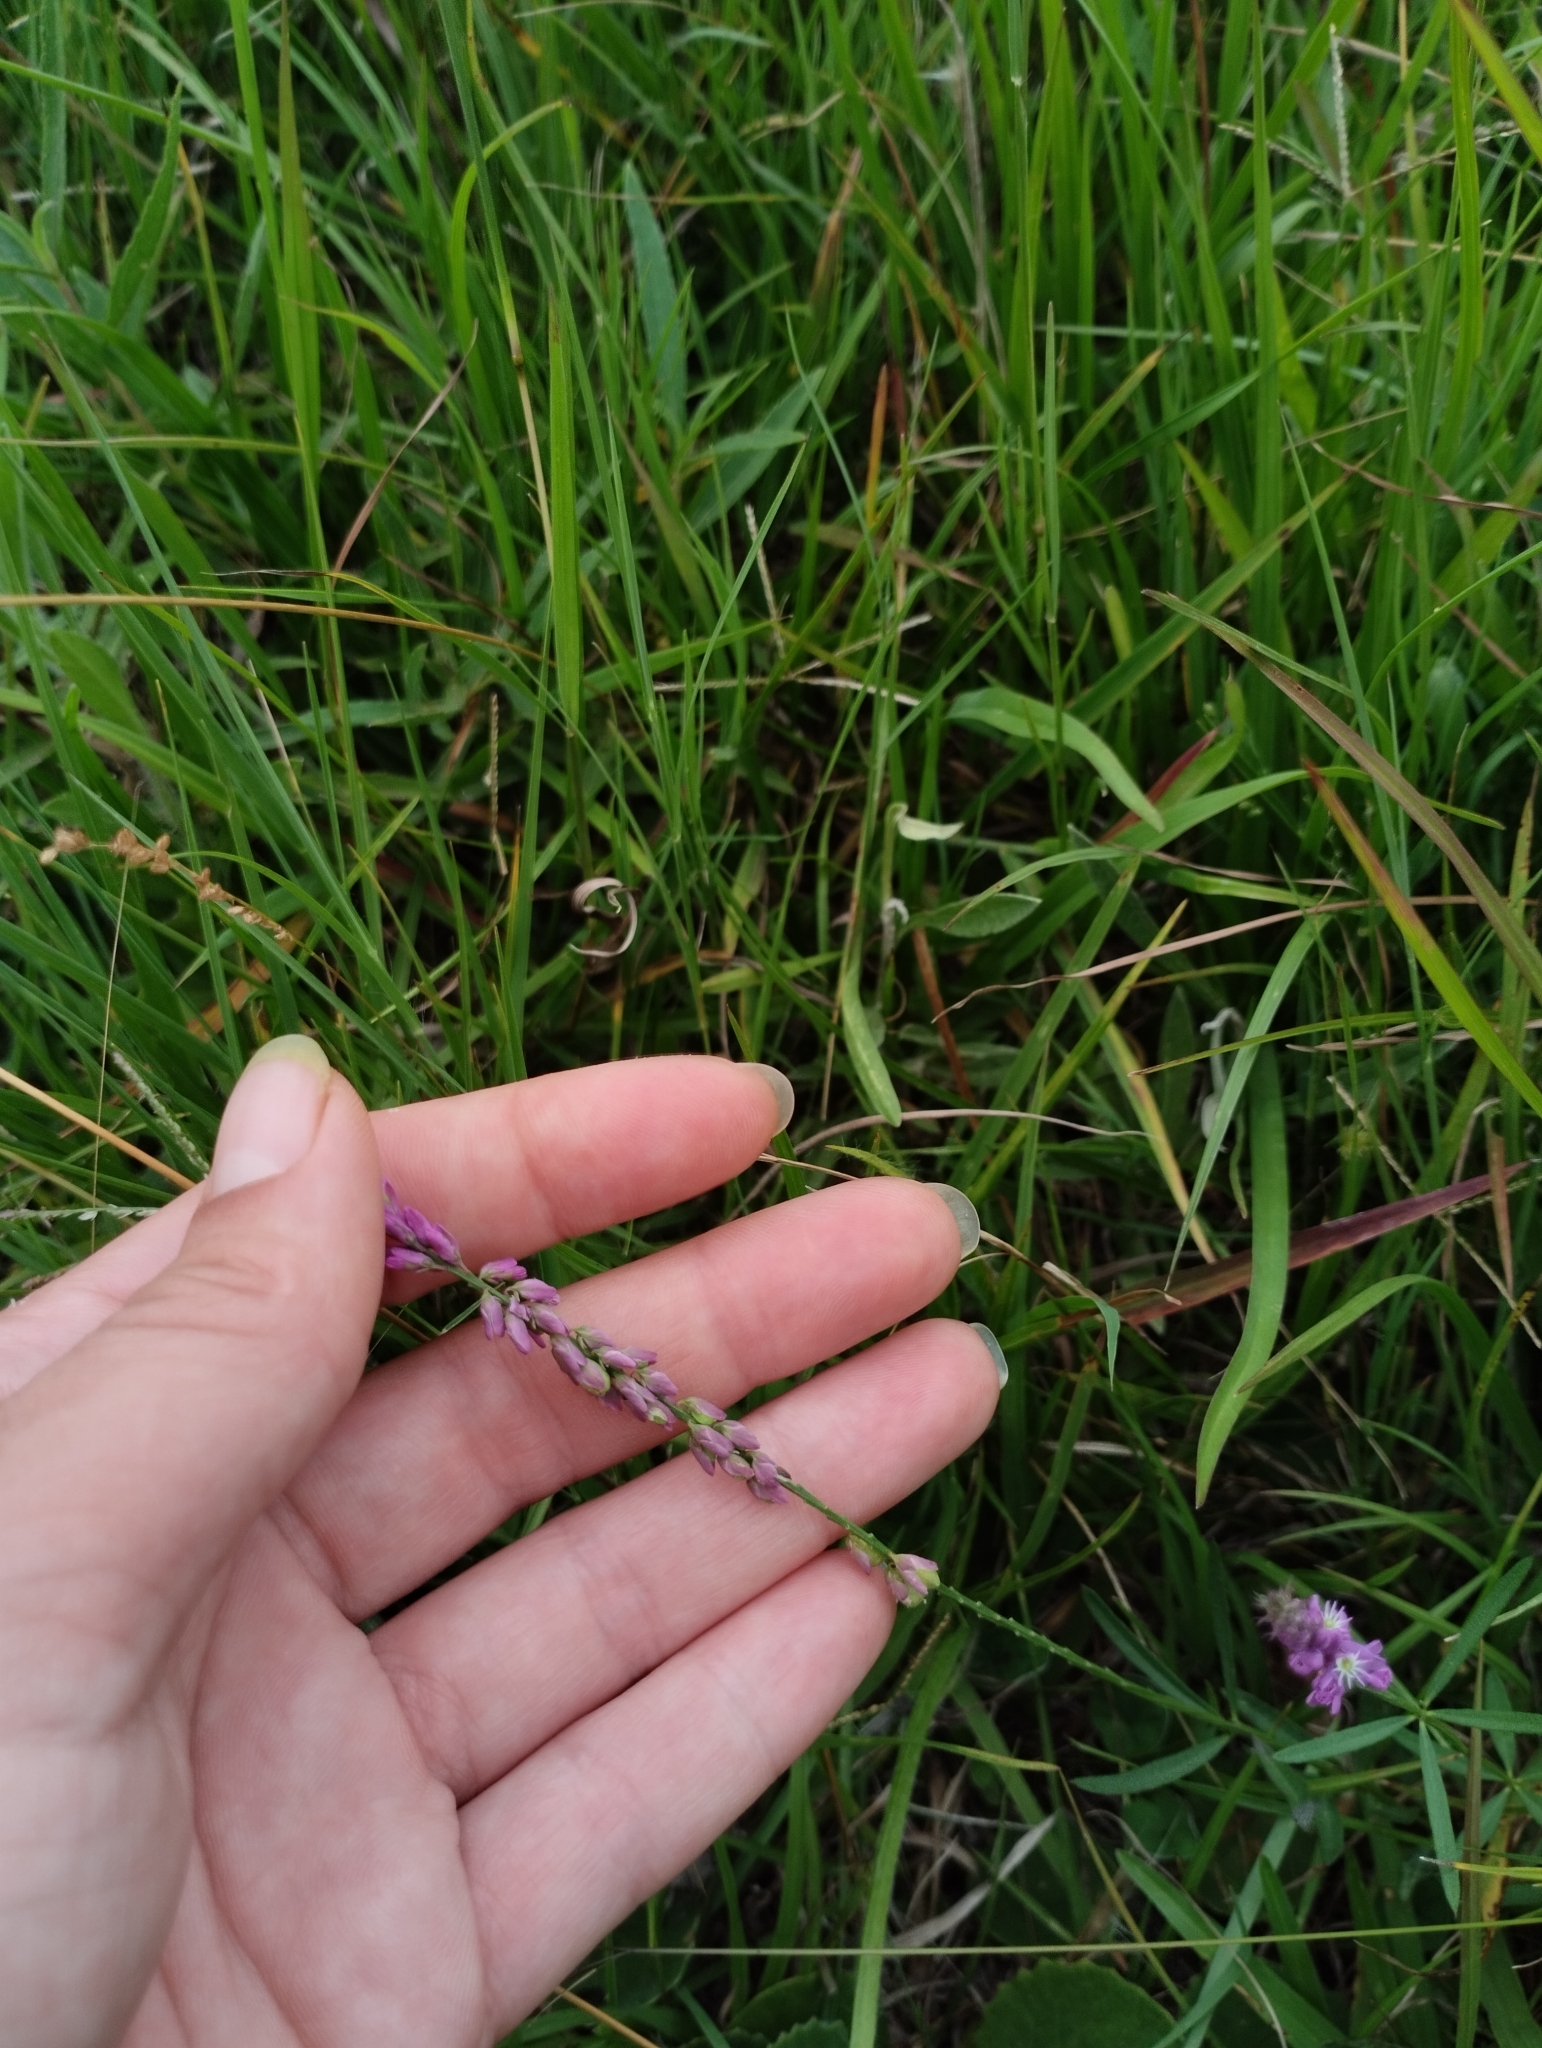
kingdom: Plantae
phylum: Tracheophyta
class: Magnoliopsida
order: Fabales
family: Polygalaceae
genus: Polygala
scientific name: Polygala molluginifolia
